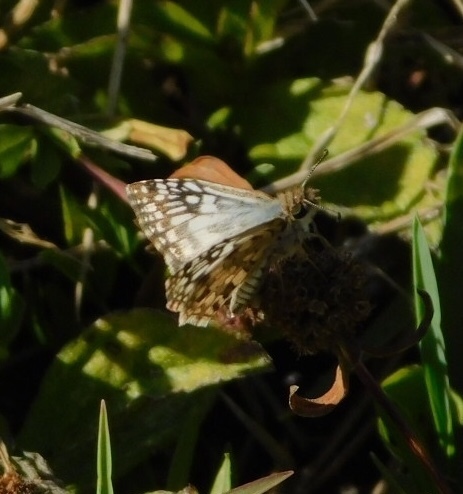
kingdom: Animalia
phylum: Arthropoda
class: Insecta
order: Lepidoptera
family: Hesperiidae
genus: Pyrgus
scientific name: Pyrgus oileus
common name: Tropical checkered-skipper
